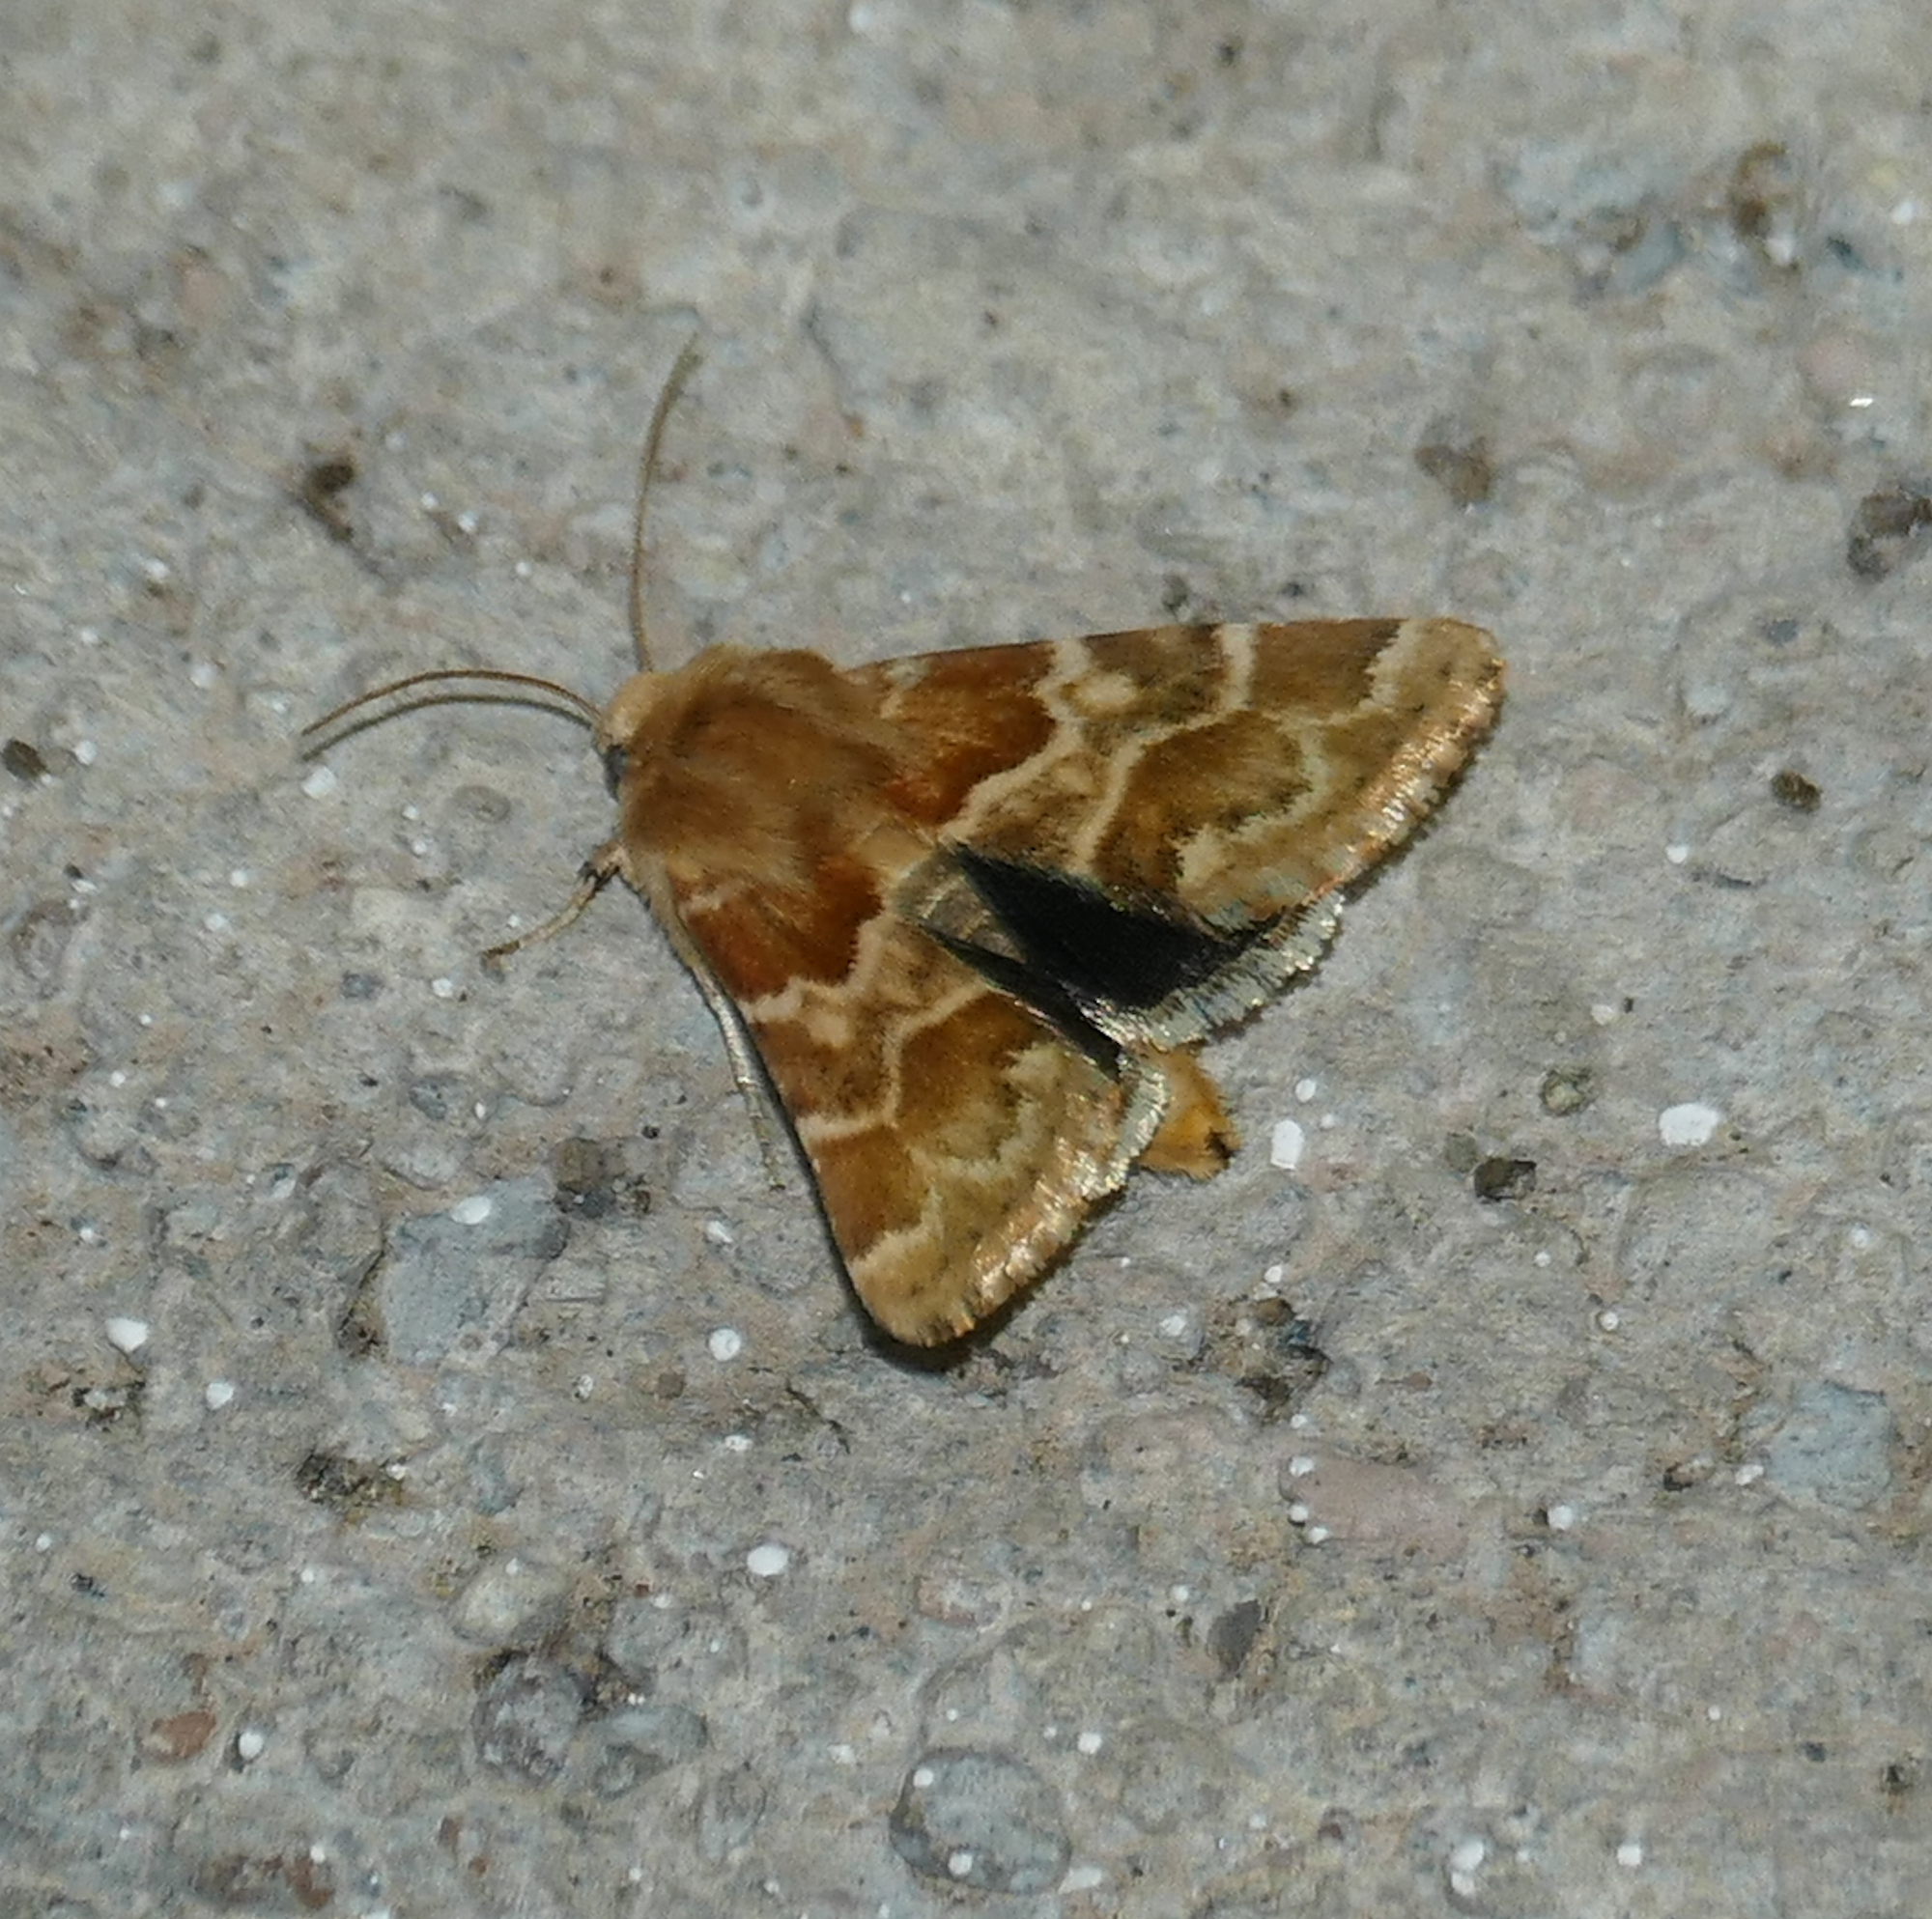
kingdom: Animalia
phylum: Arthropoda
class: Insecta
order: Lepidoptera
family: Noctuidae
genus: Schinia
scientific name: Schinia errans
